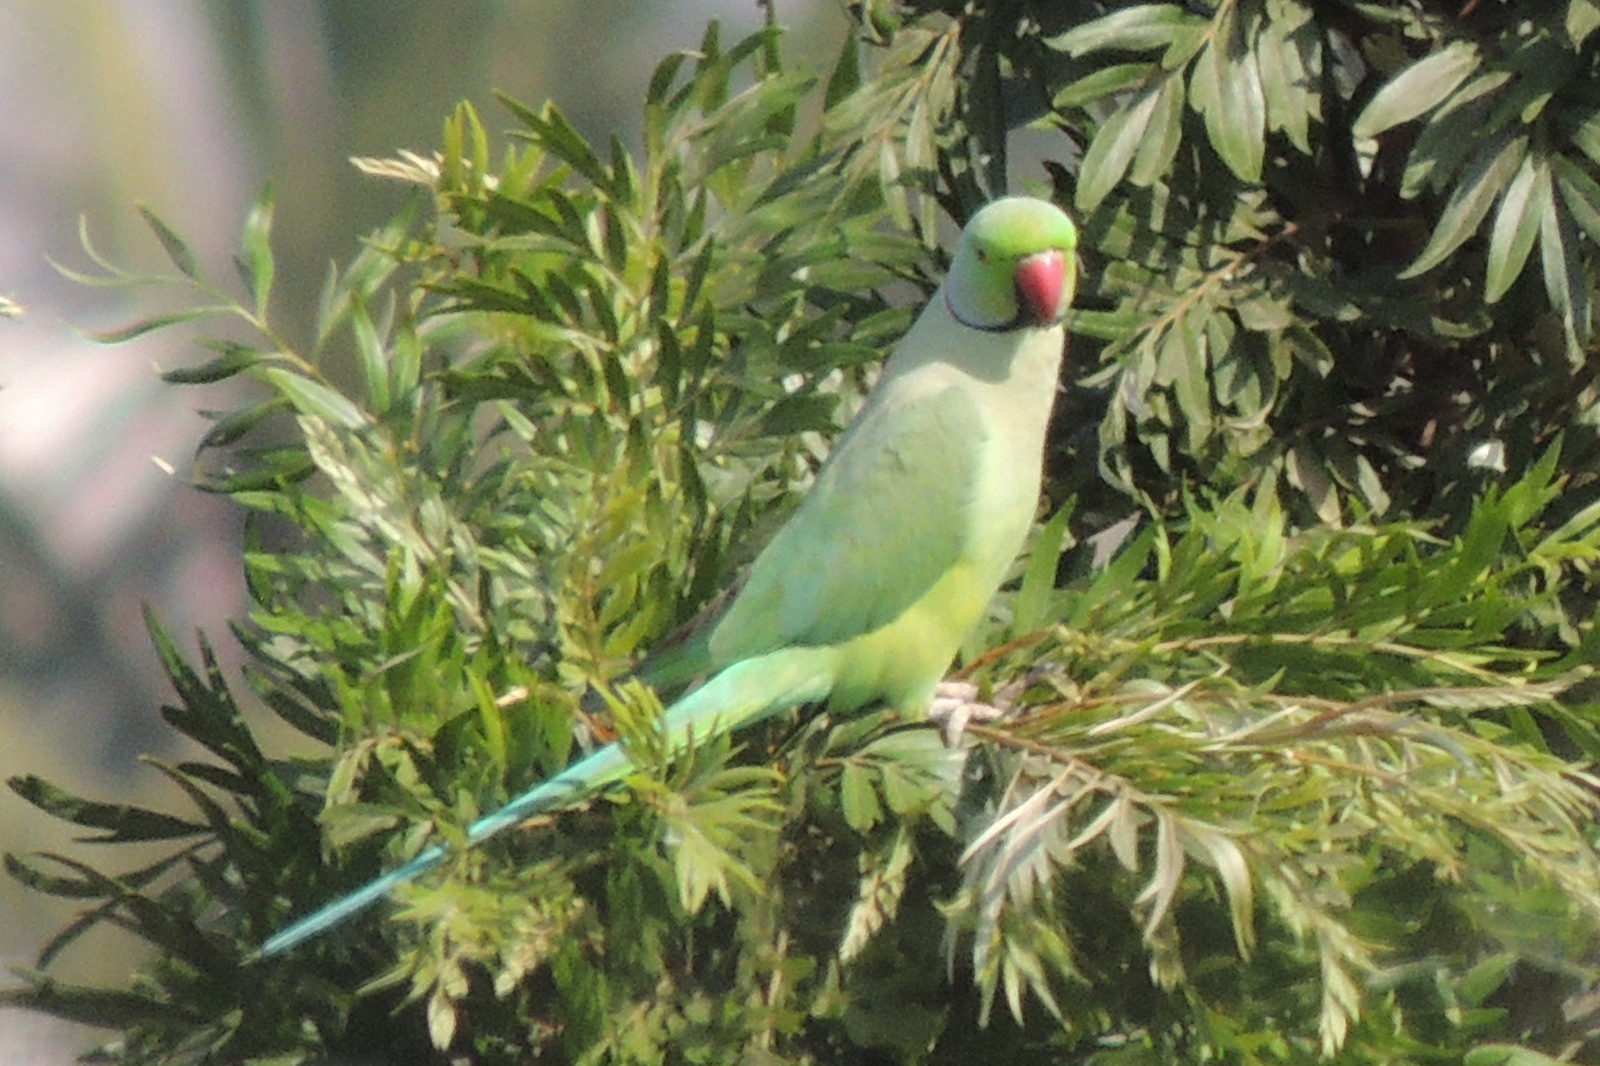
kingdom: Animalia
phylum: Chordata
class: Aves
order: Psittaciformes
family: Psittacidae
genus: Psittacula
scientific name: Psittacula krameri
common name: Rose-ringed parakeet
